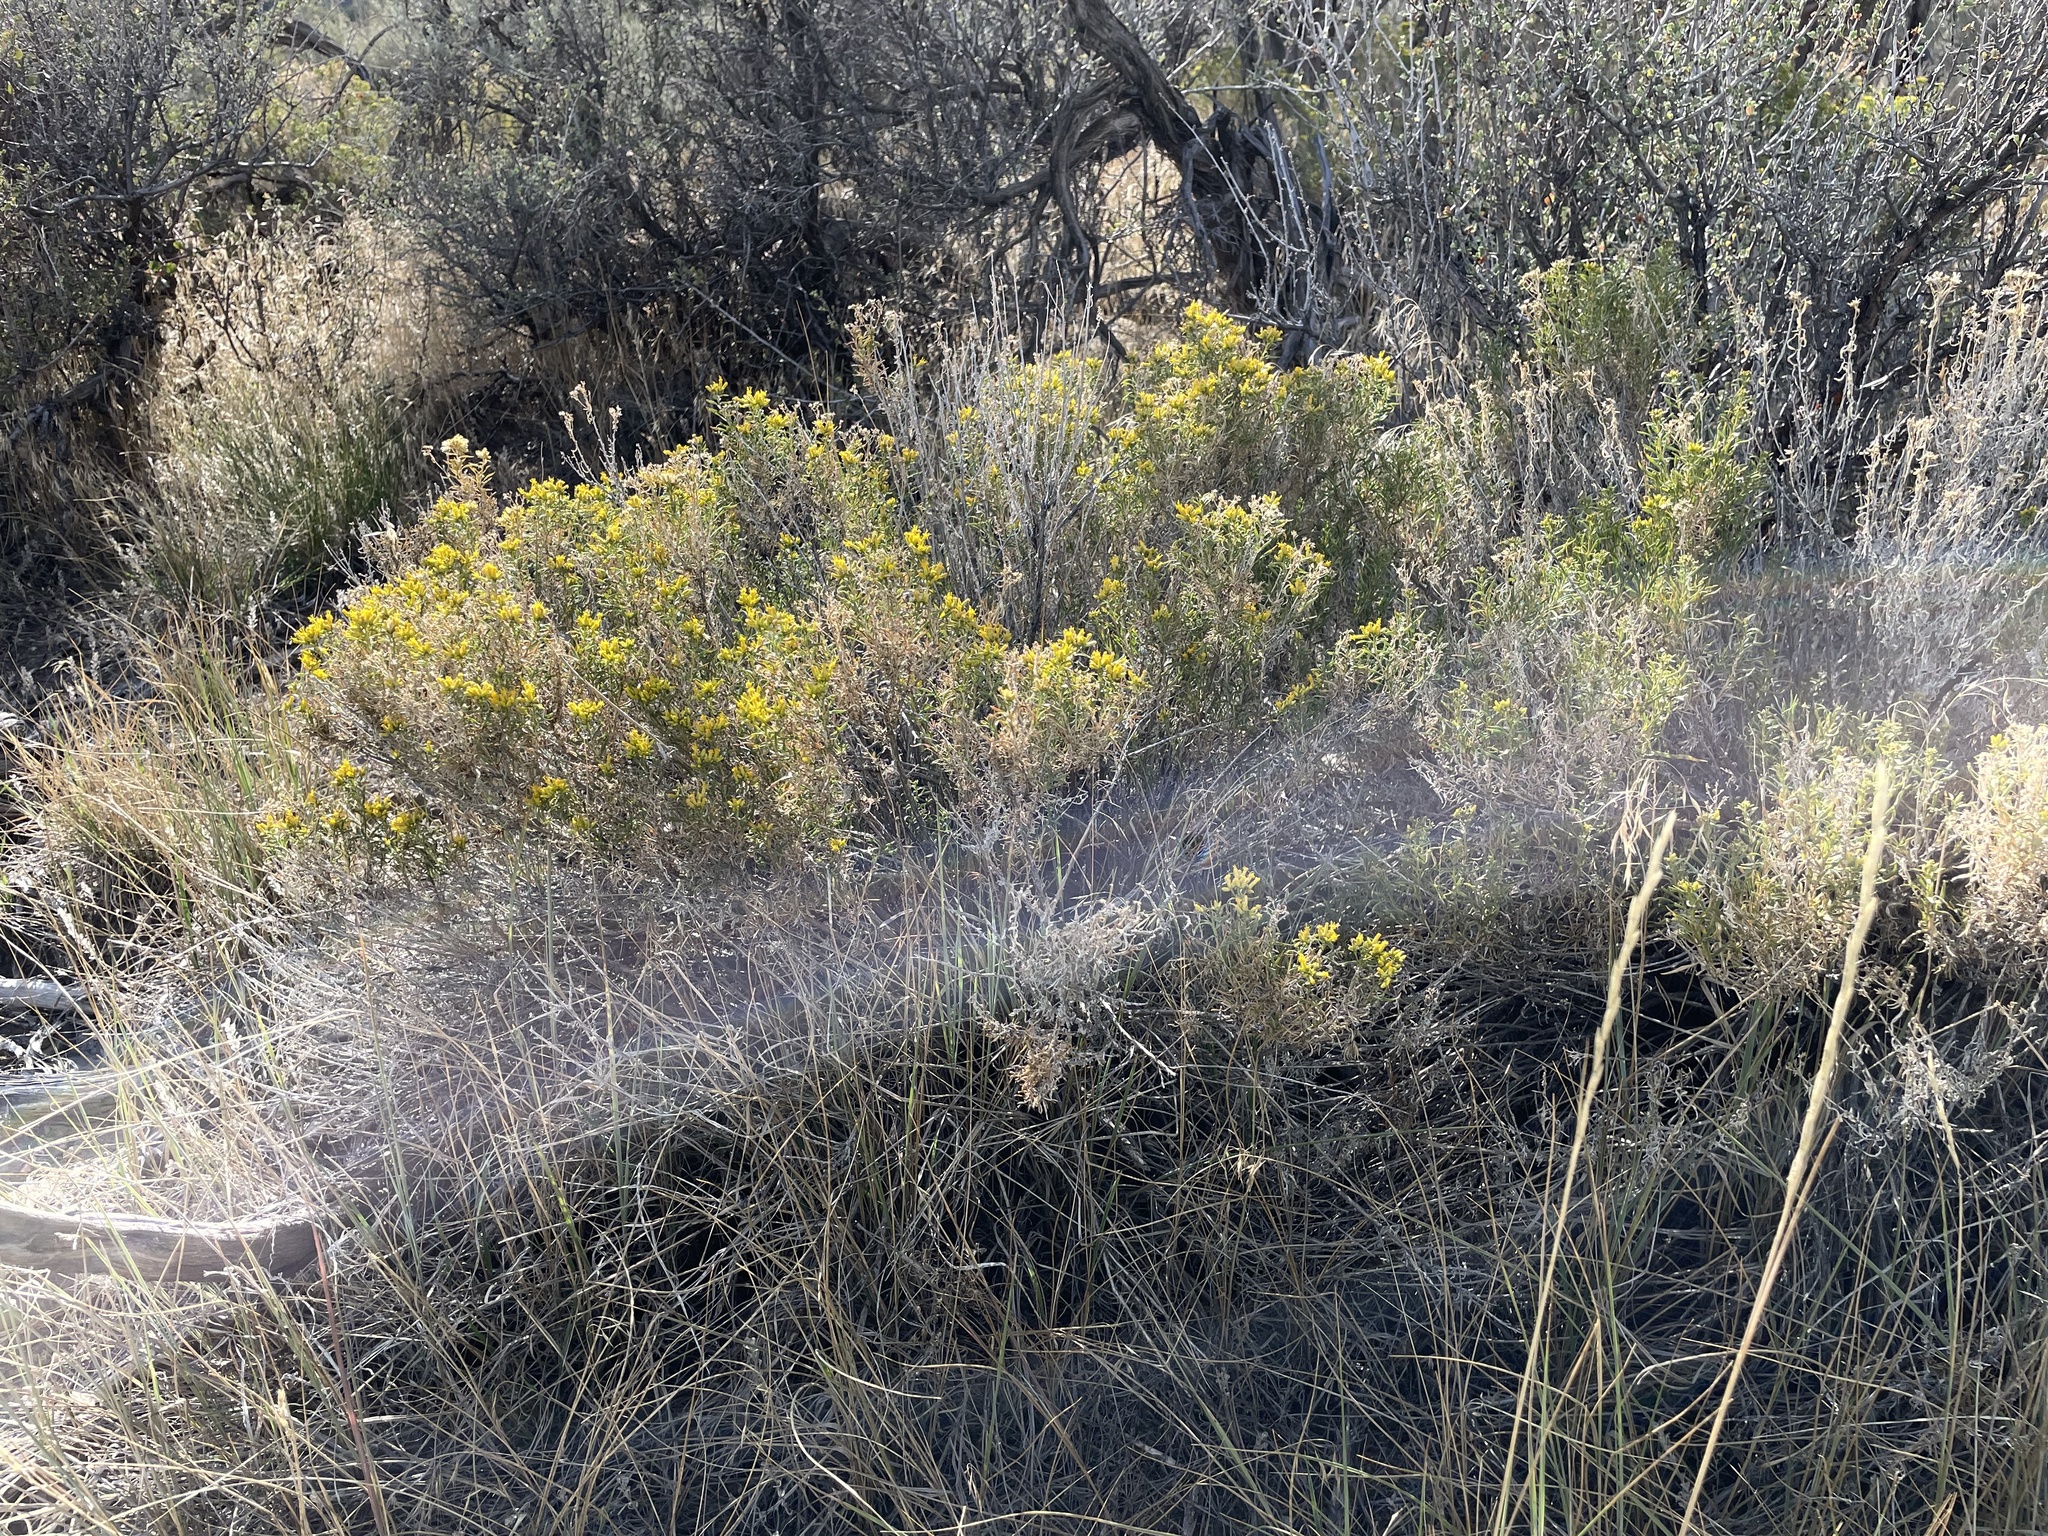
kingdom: Plantae
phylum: Tracheophyta
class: Magnoliopsida
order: Asterales
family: Asteraceae
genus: Chrysothamnus
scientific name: Chrysothamnus viscidiflorus
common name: Yellow rabbitbrush
